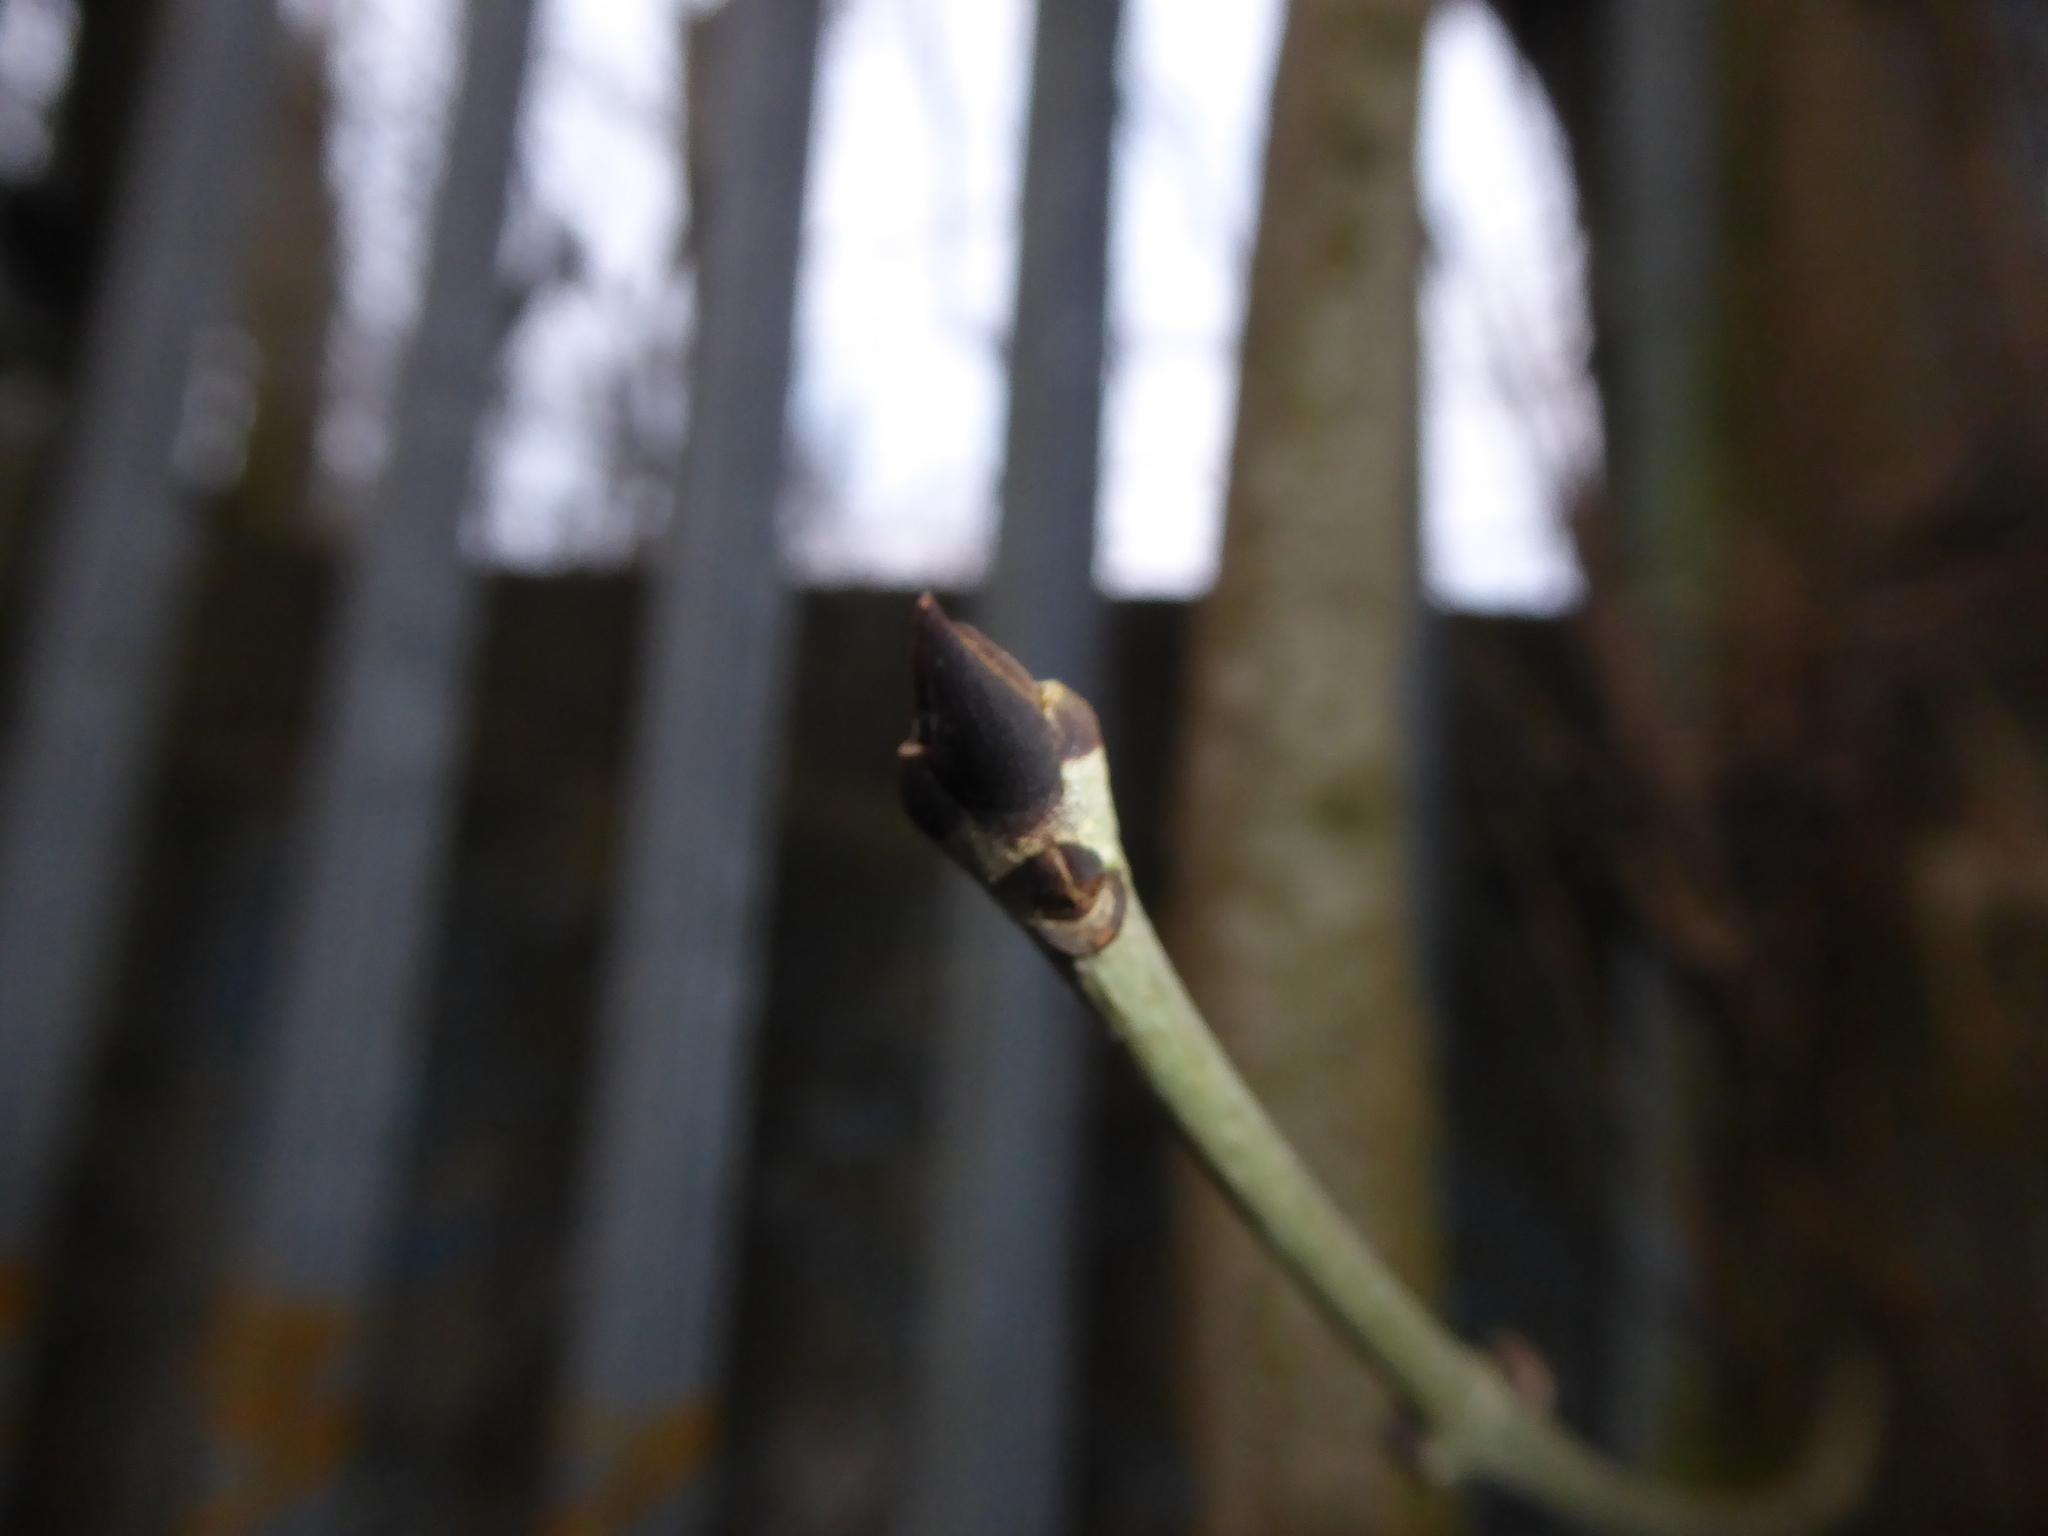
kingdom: Plantae
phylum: Tracheophyta
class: Magnoliopsida
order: Lamiales
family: Oleaceae
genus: Fraxinus
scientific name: Fraxinus excelsior
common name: European ash
